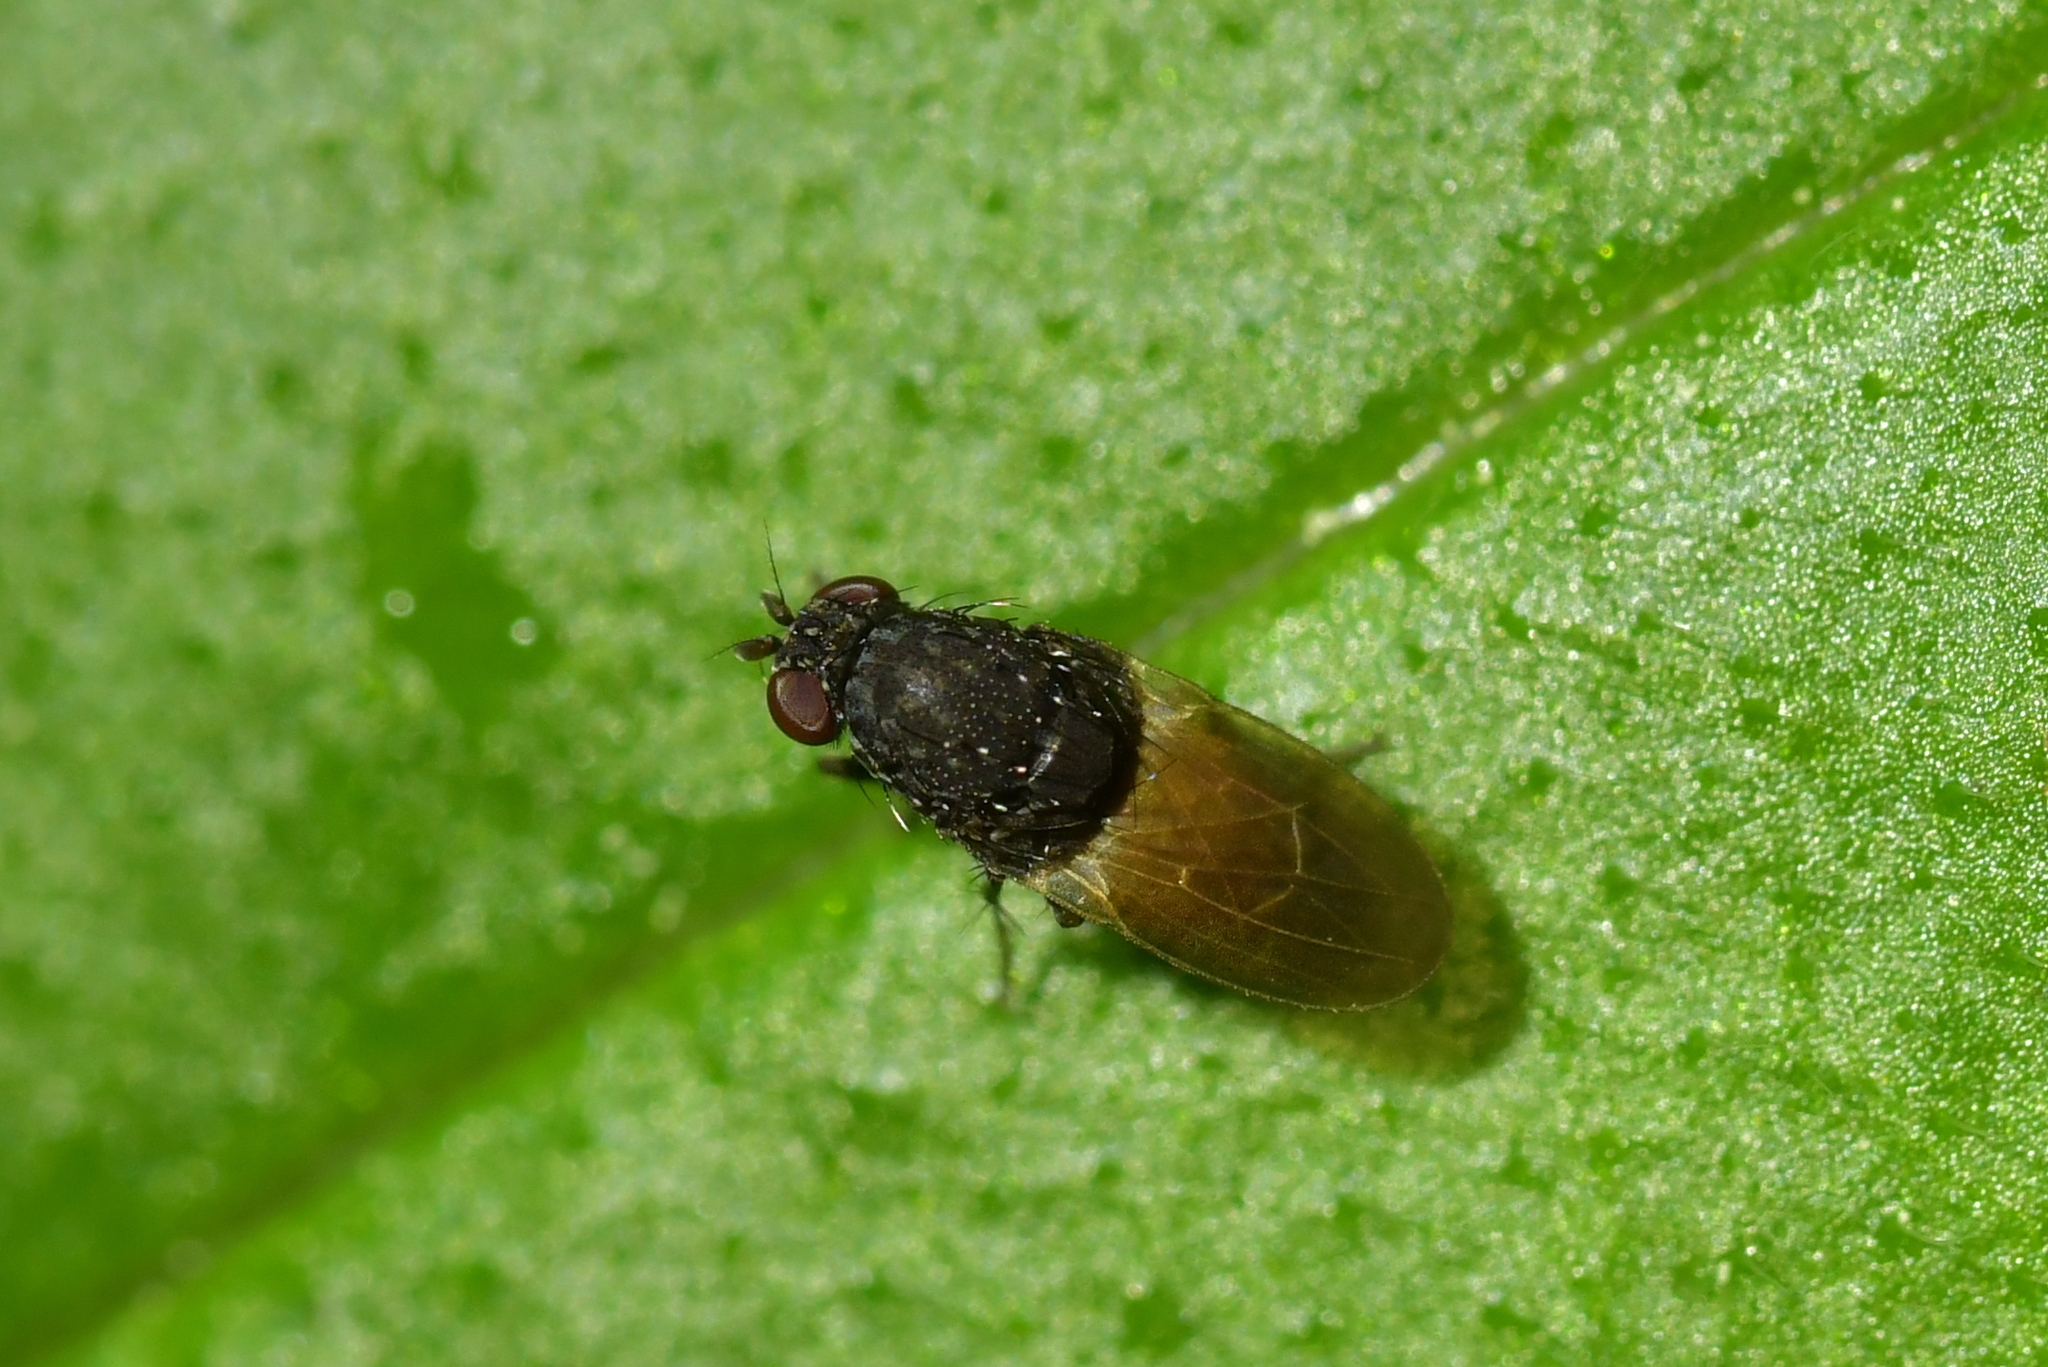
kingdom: Animalia
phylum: Arthropoda
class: Insecta
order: Diptera
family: Heleomyzidae
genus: Allophylina
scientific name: Allophylina albitarsis
